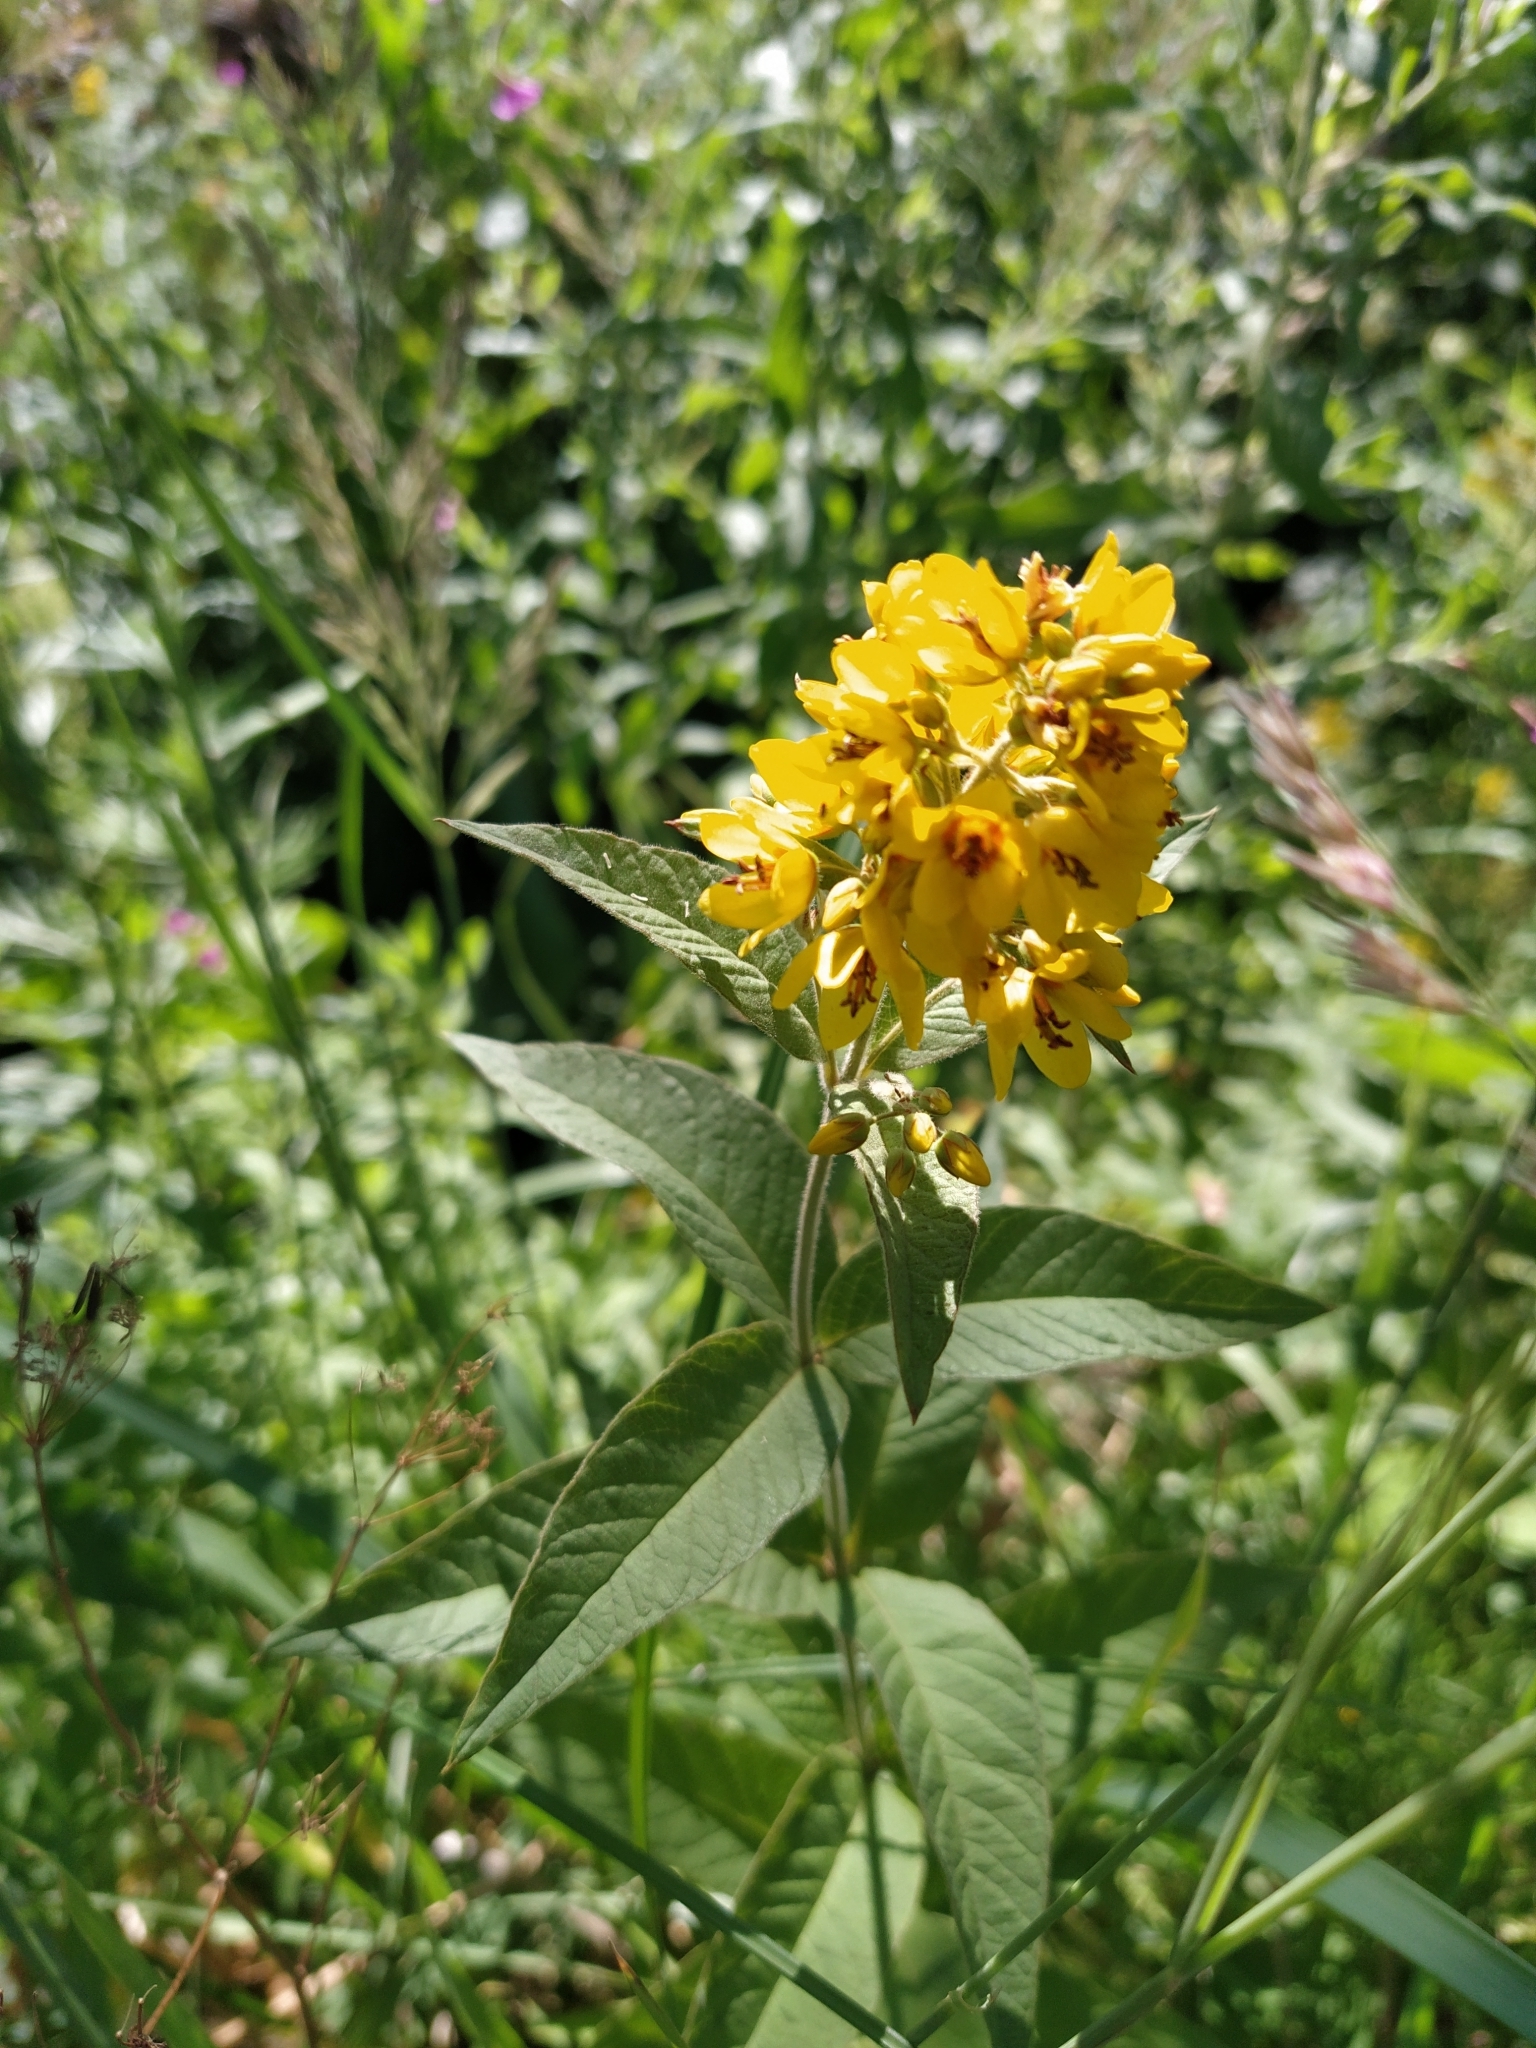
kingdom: Plantae
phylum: Tracheophyta
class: Magnoliopsida
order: Ericales
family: Primulaceae
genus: Lysimachia
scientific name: Lysimachia vulgaris
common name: Yellow loosestrife
